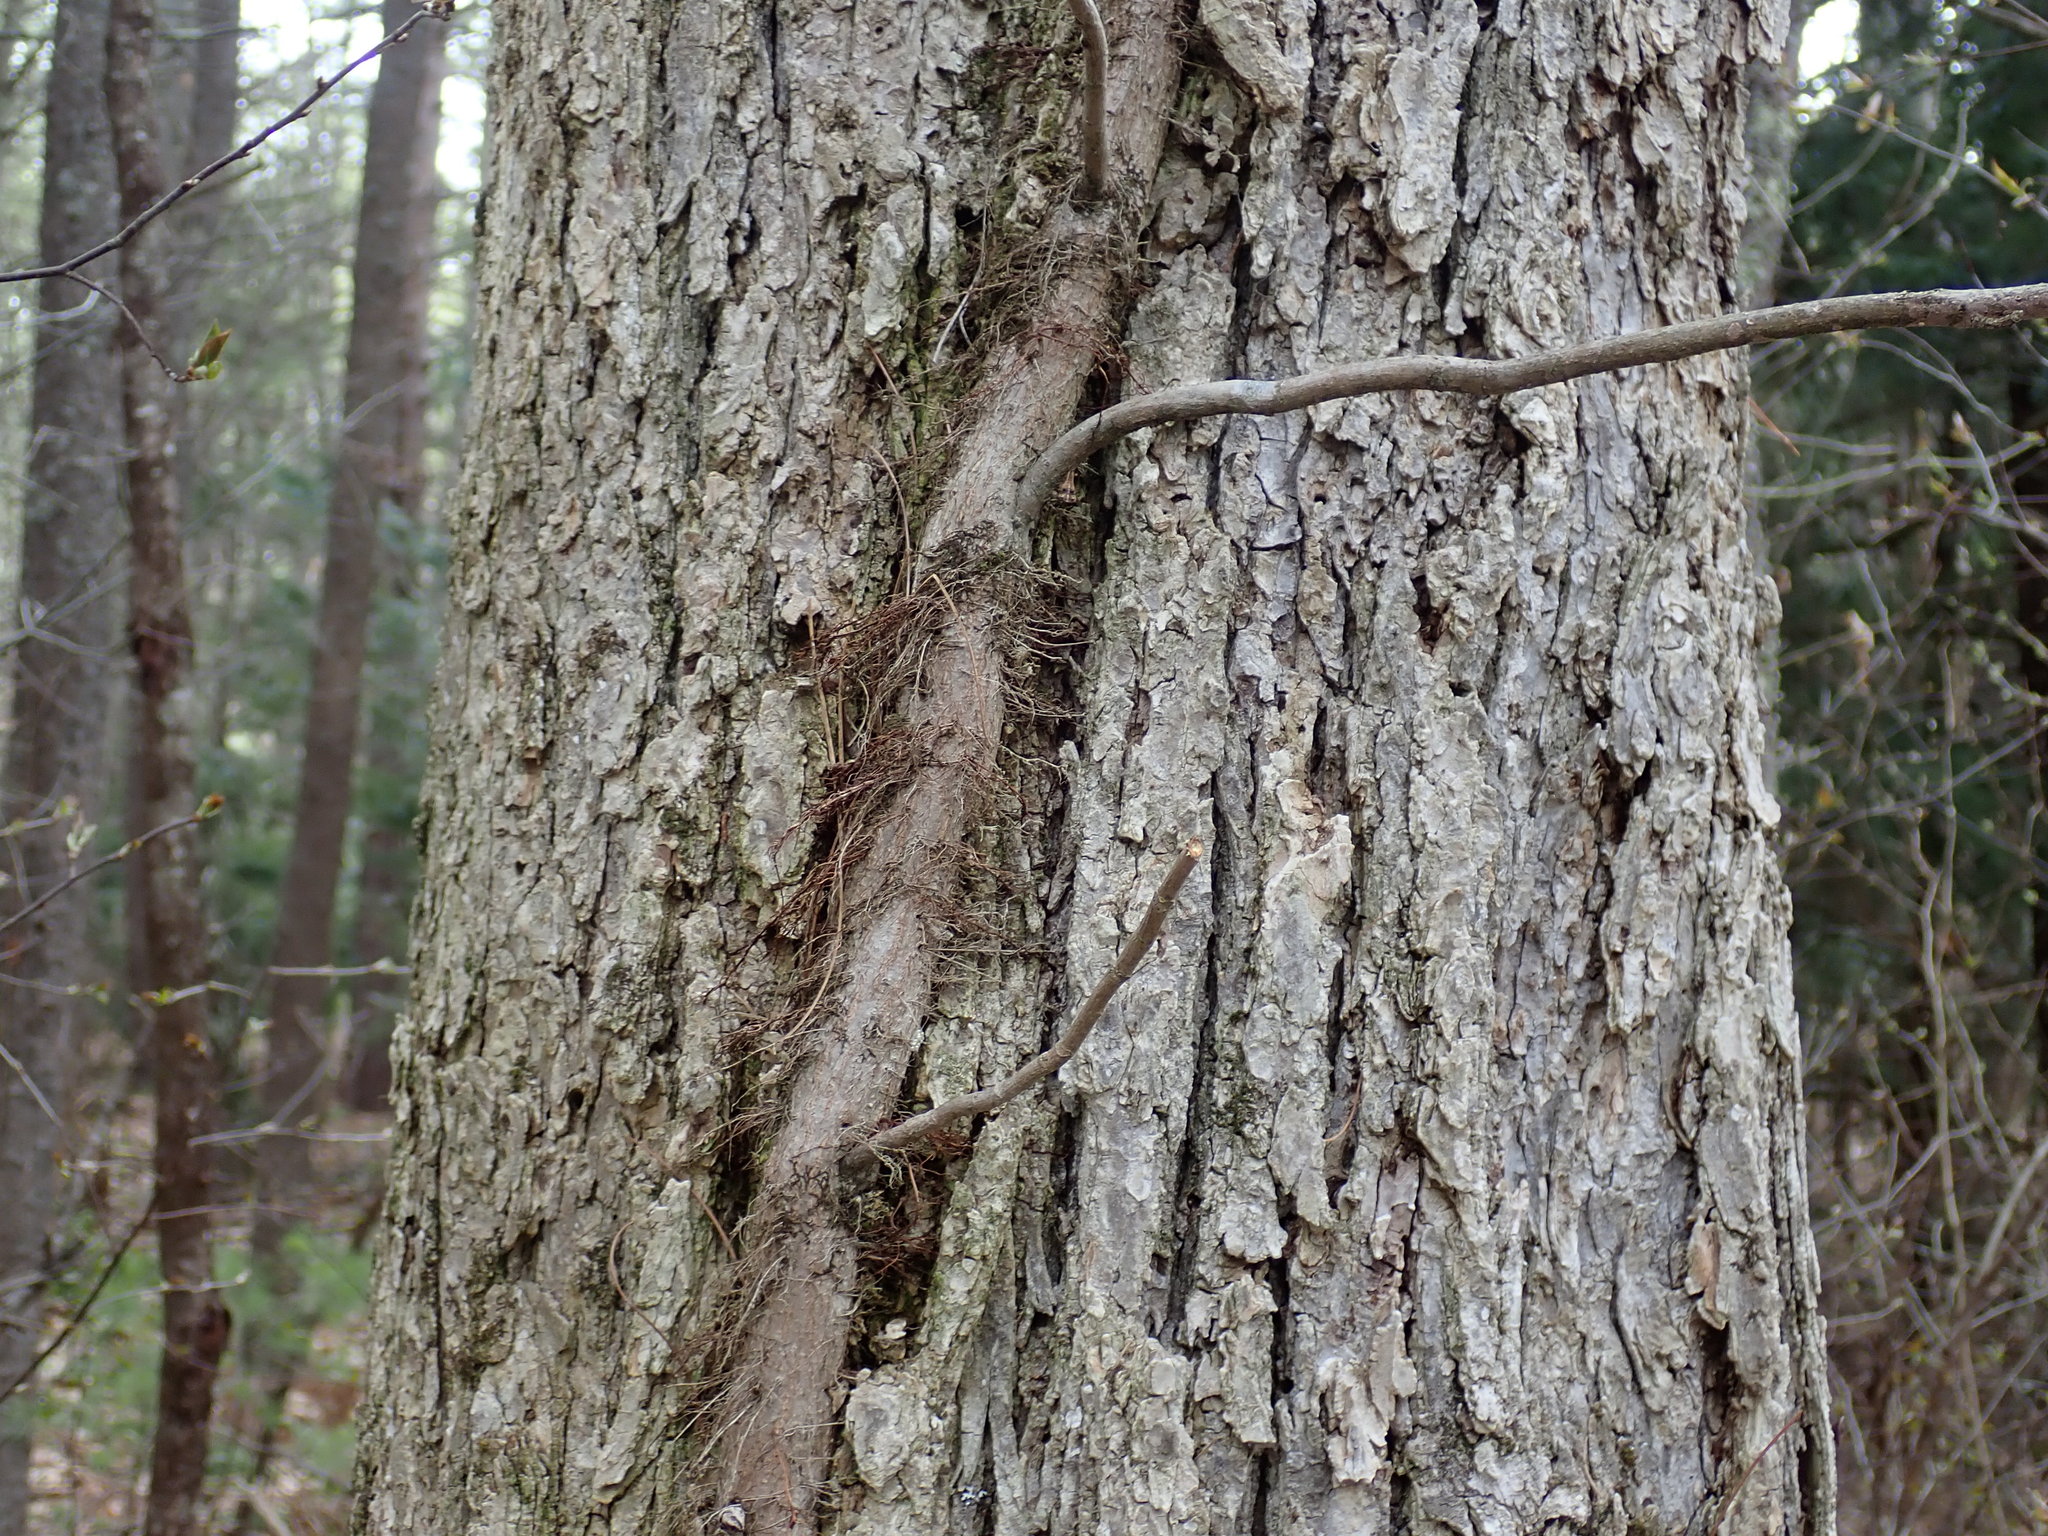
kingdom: Plantae
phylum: Tracheophyta
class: Magnoliopsida
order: Sapindales
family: Anacardiaceae
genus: Toxicodendron
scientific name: Toxicodendron radicans
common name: Poison ivy
